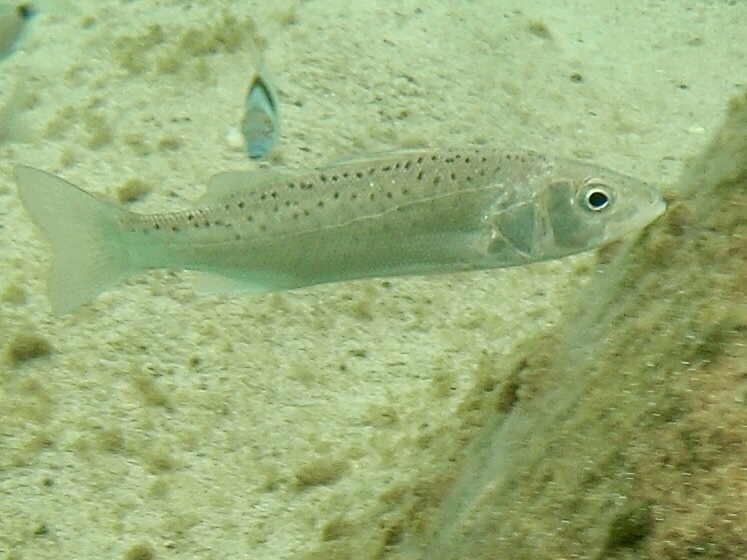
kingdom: Animalia
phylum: Chordata
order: Perciformes
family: Moronidae
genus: Dicentrarchus
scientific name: Dicentrarchus labrax
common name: European seabass
